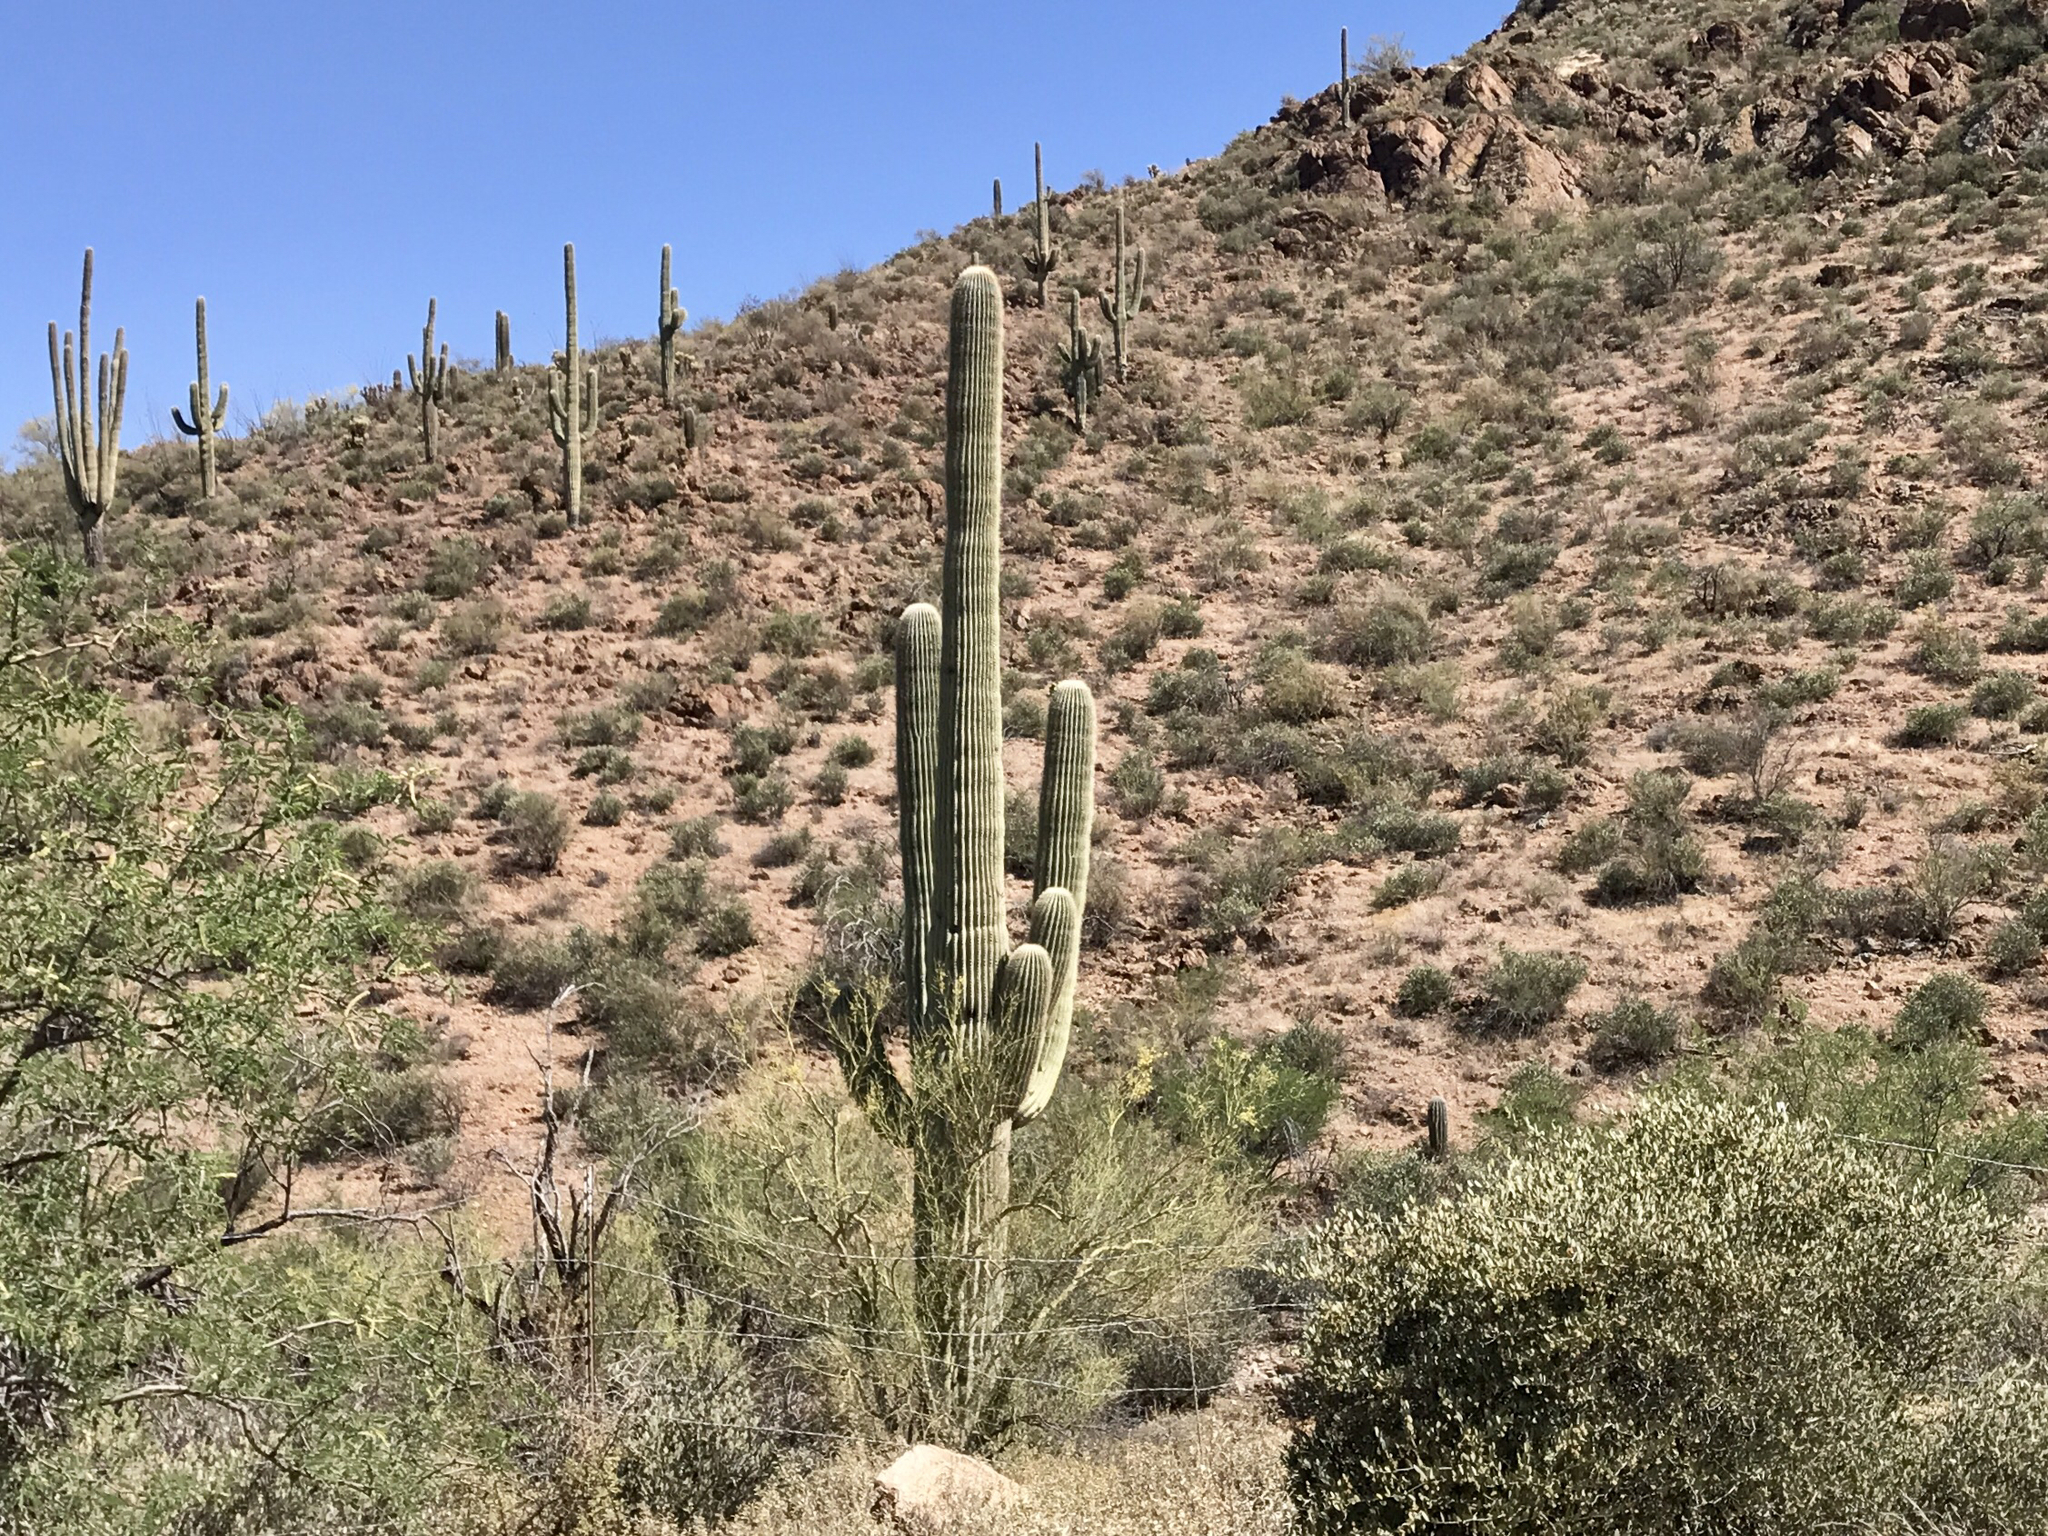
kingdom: Plantae
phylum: Tracheophyta
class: Magnoliopsida
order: Caryophyllales
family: Cactaceae
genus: Carnegiea
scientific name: Carnegiea gigantea
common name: Saguaro
